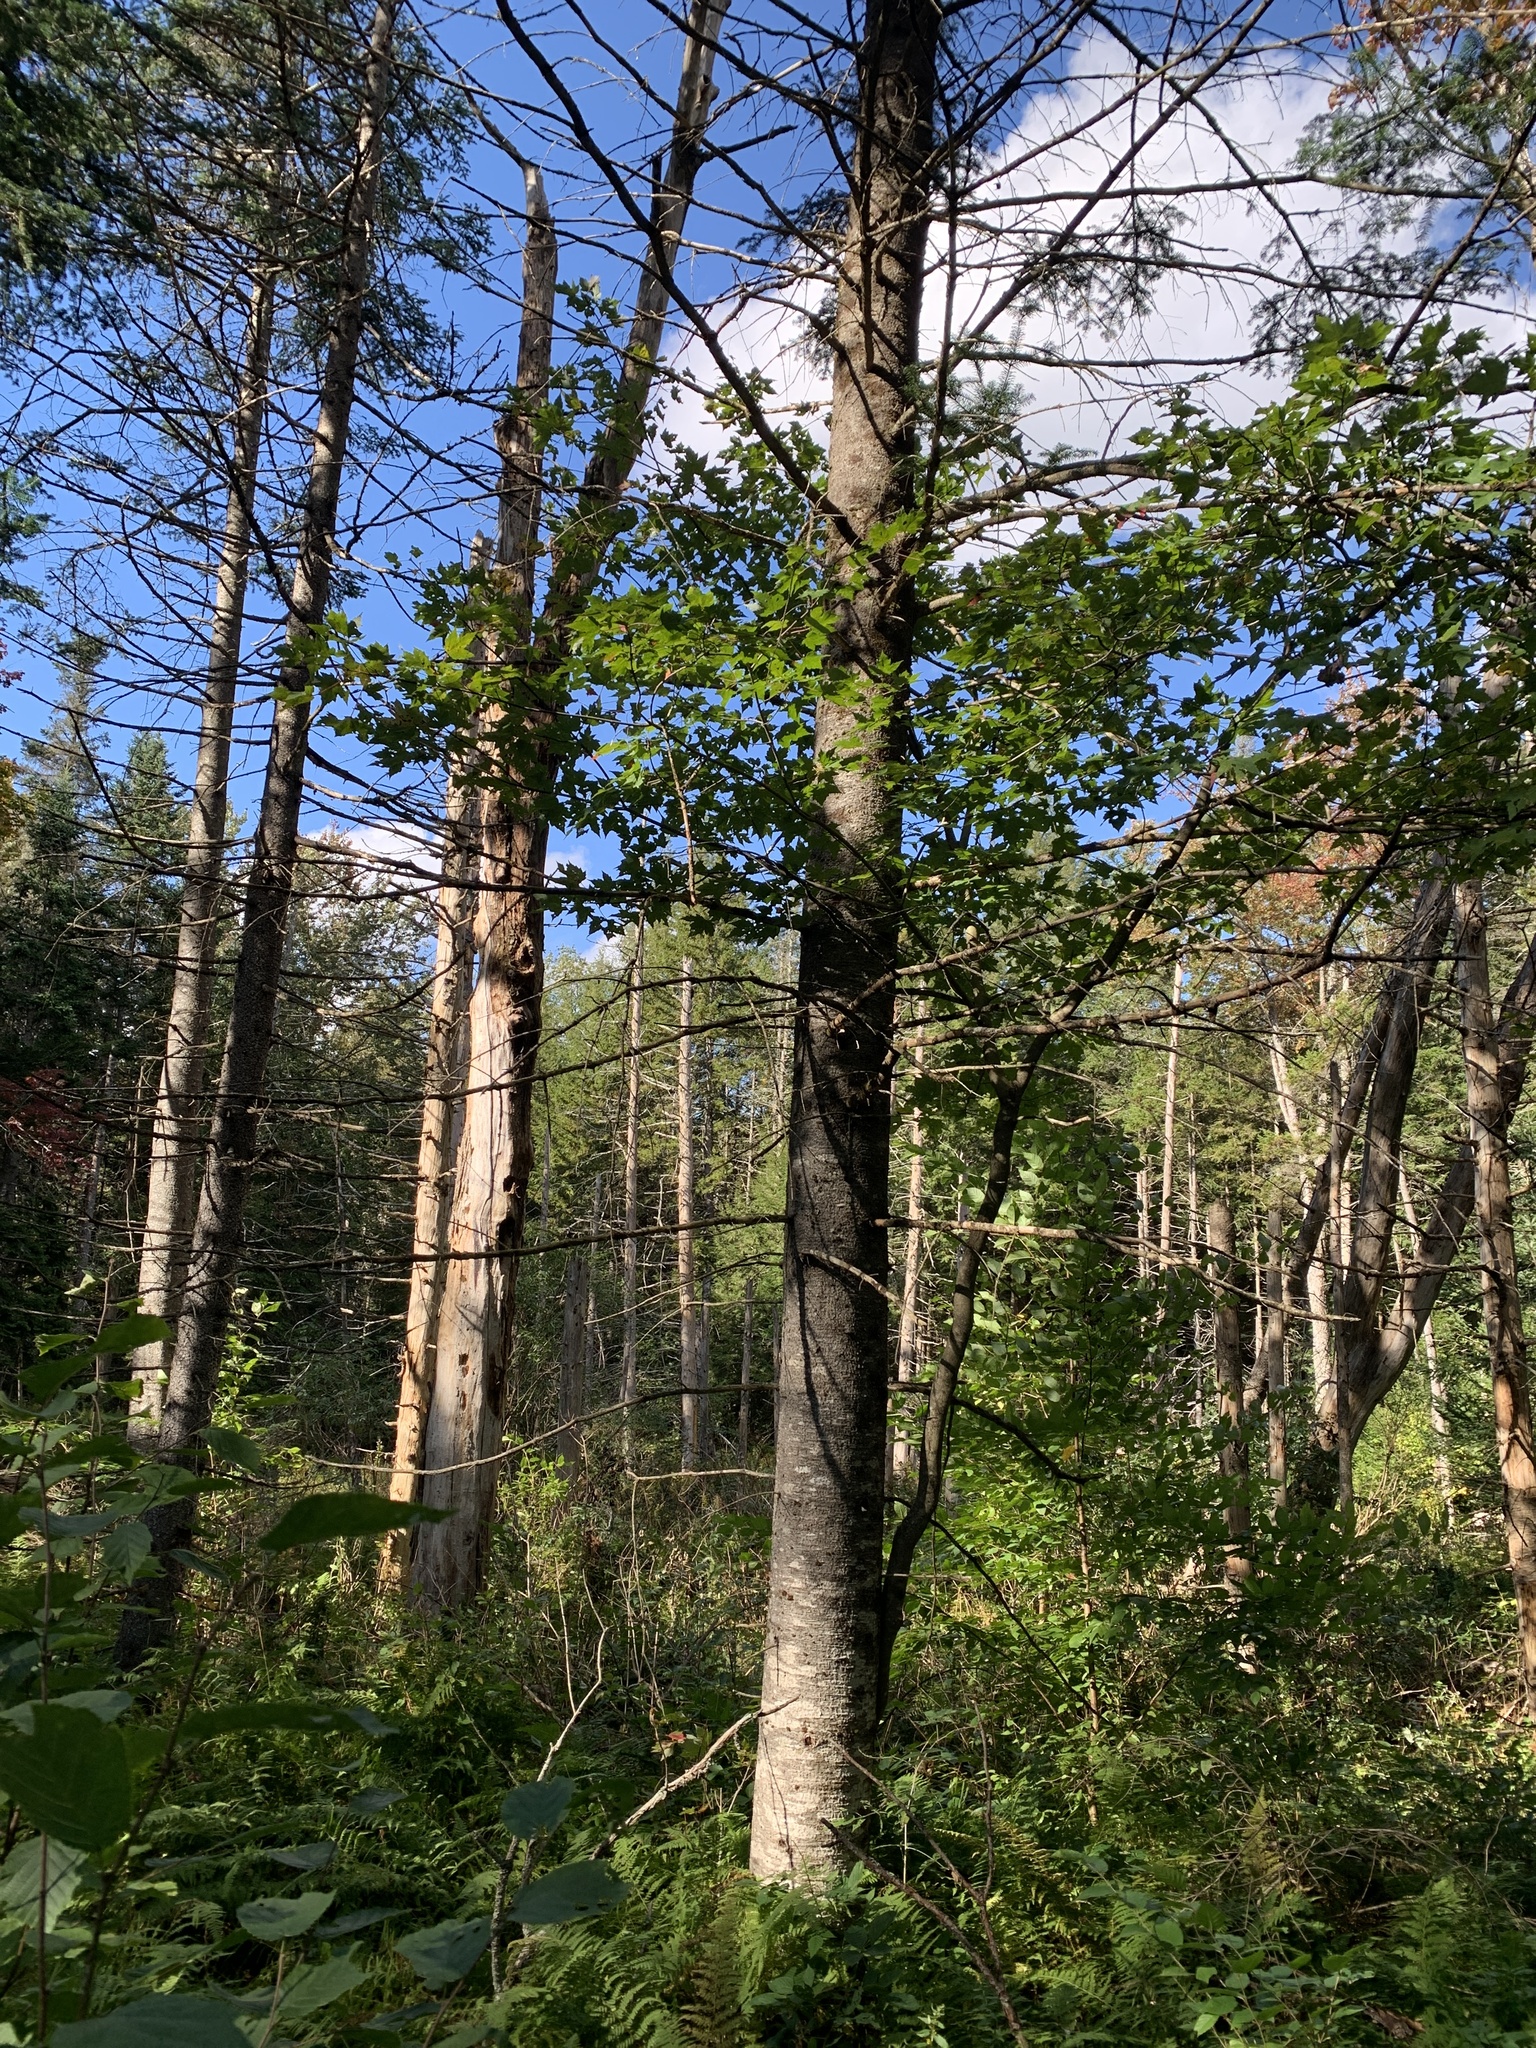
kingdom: Plantae
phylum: Tracheophyta
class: Magnoliopsida
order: Sapindales
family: Sapindaceae
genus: Acer
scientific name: Acer rubrum
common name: Red maple
